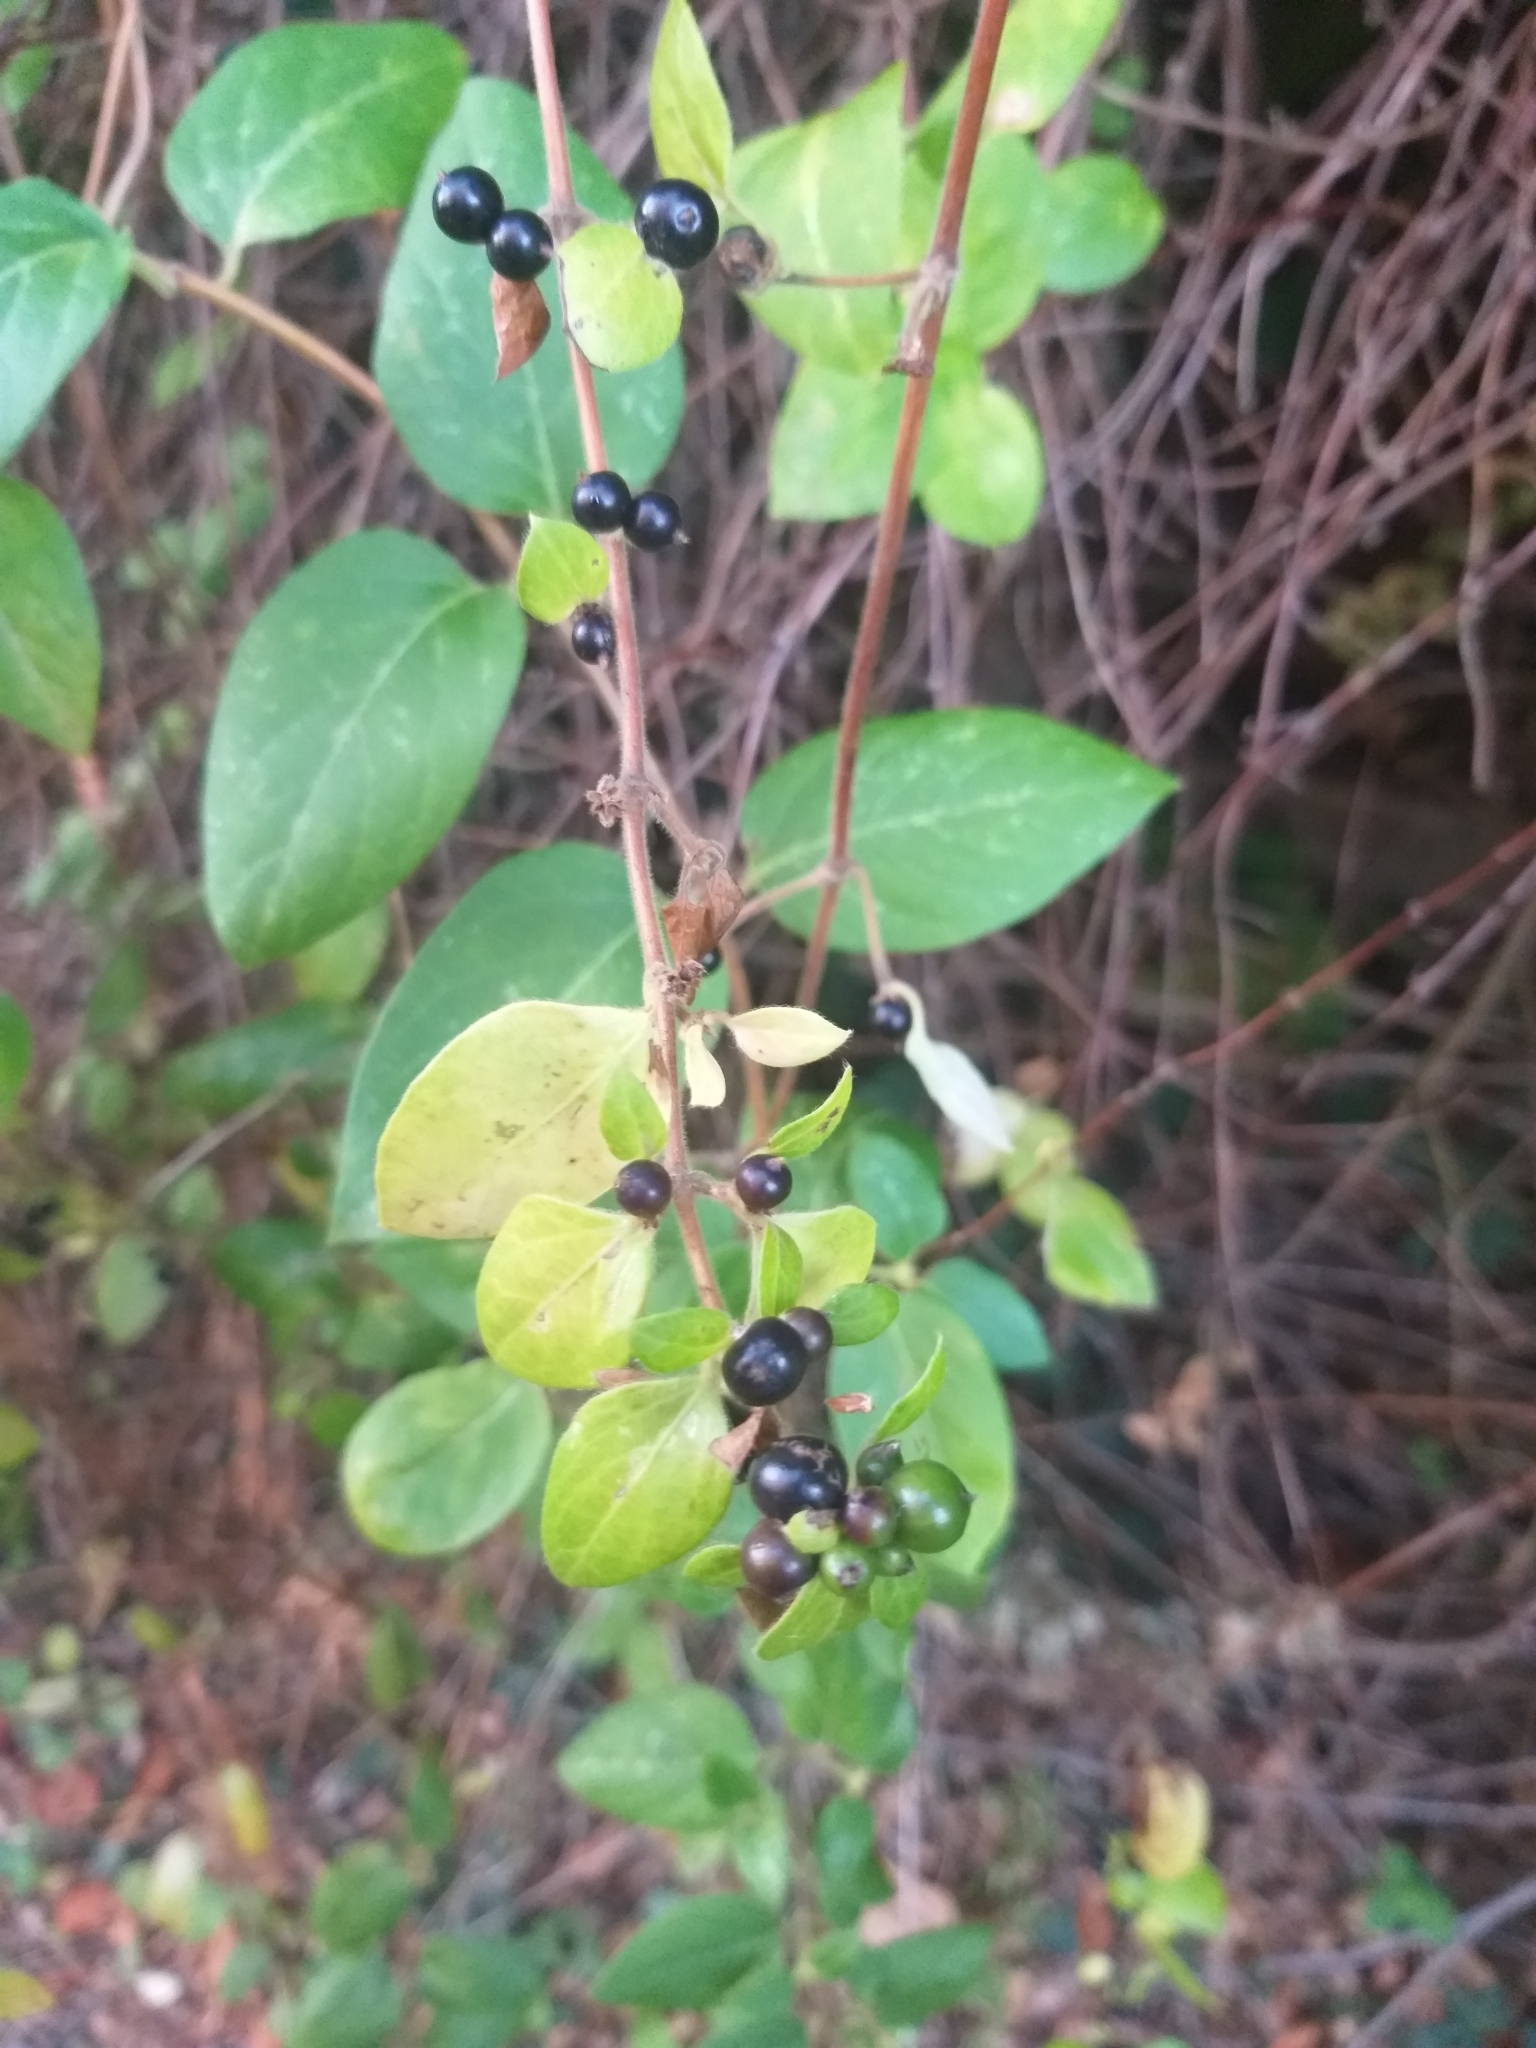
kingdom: Plantae
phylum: Tracheophyta
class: Magnoliopsida
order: Dipsacales
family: Caprifoliaceae
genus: Lonicera
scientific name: Lonicera japonica
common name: Japanese honeysuckle
